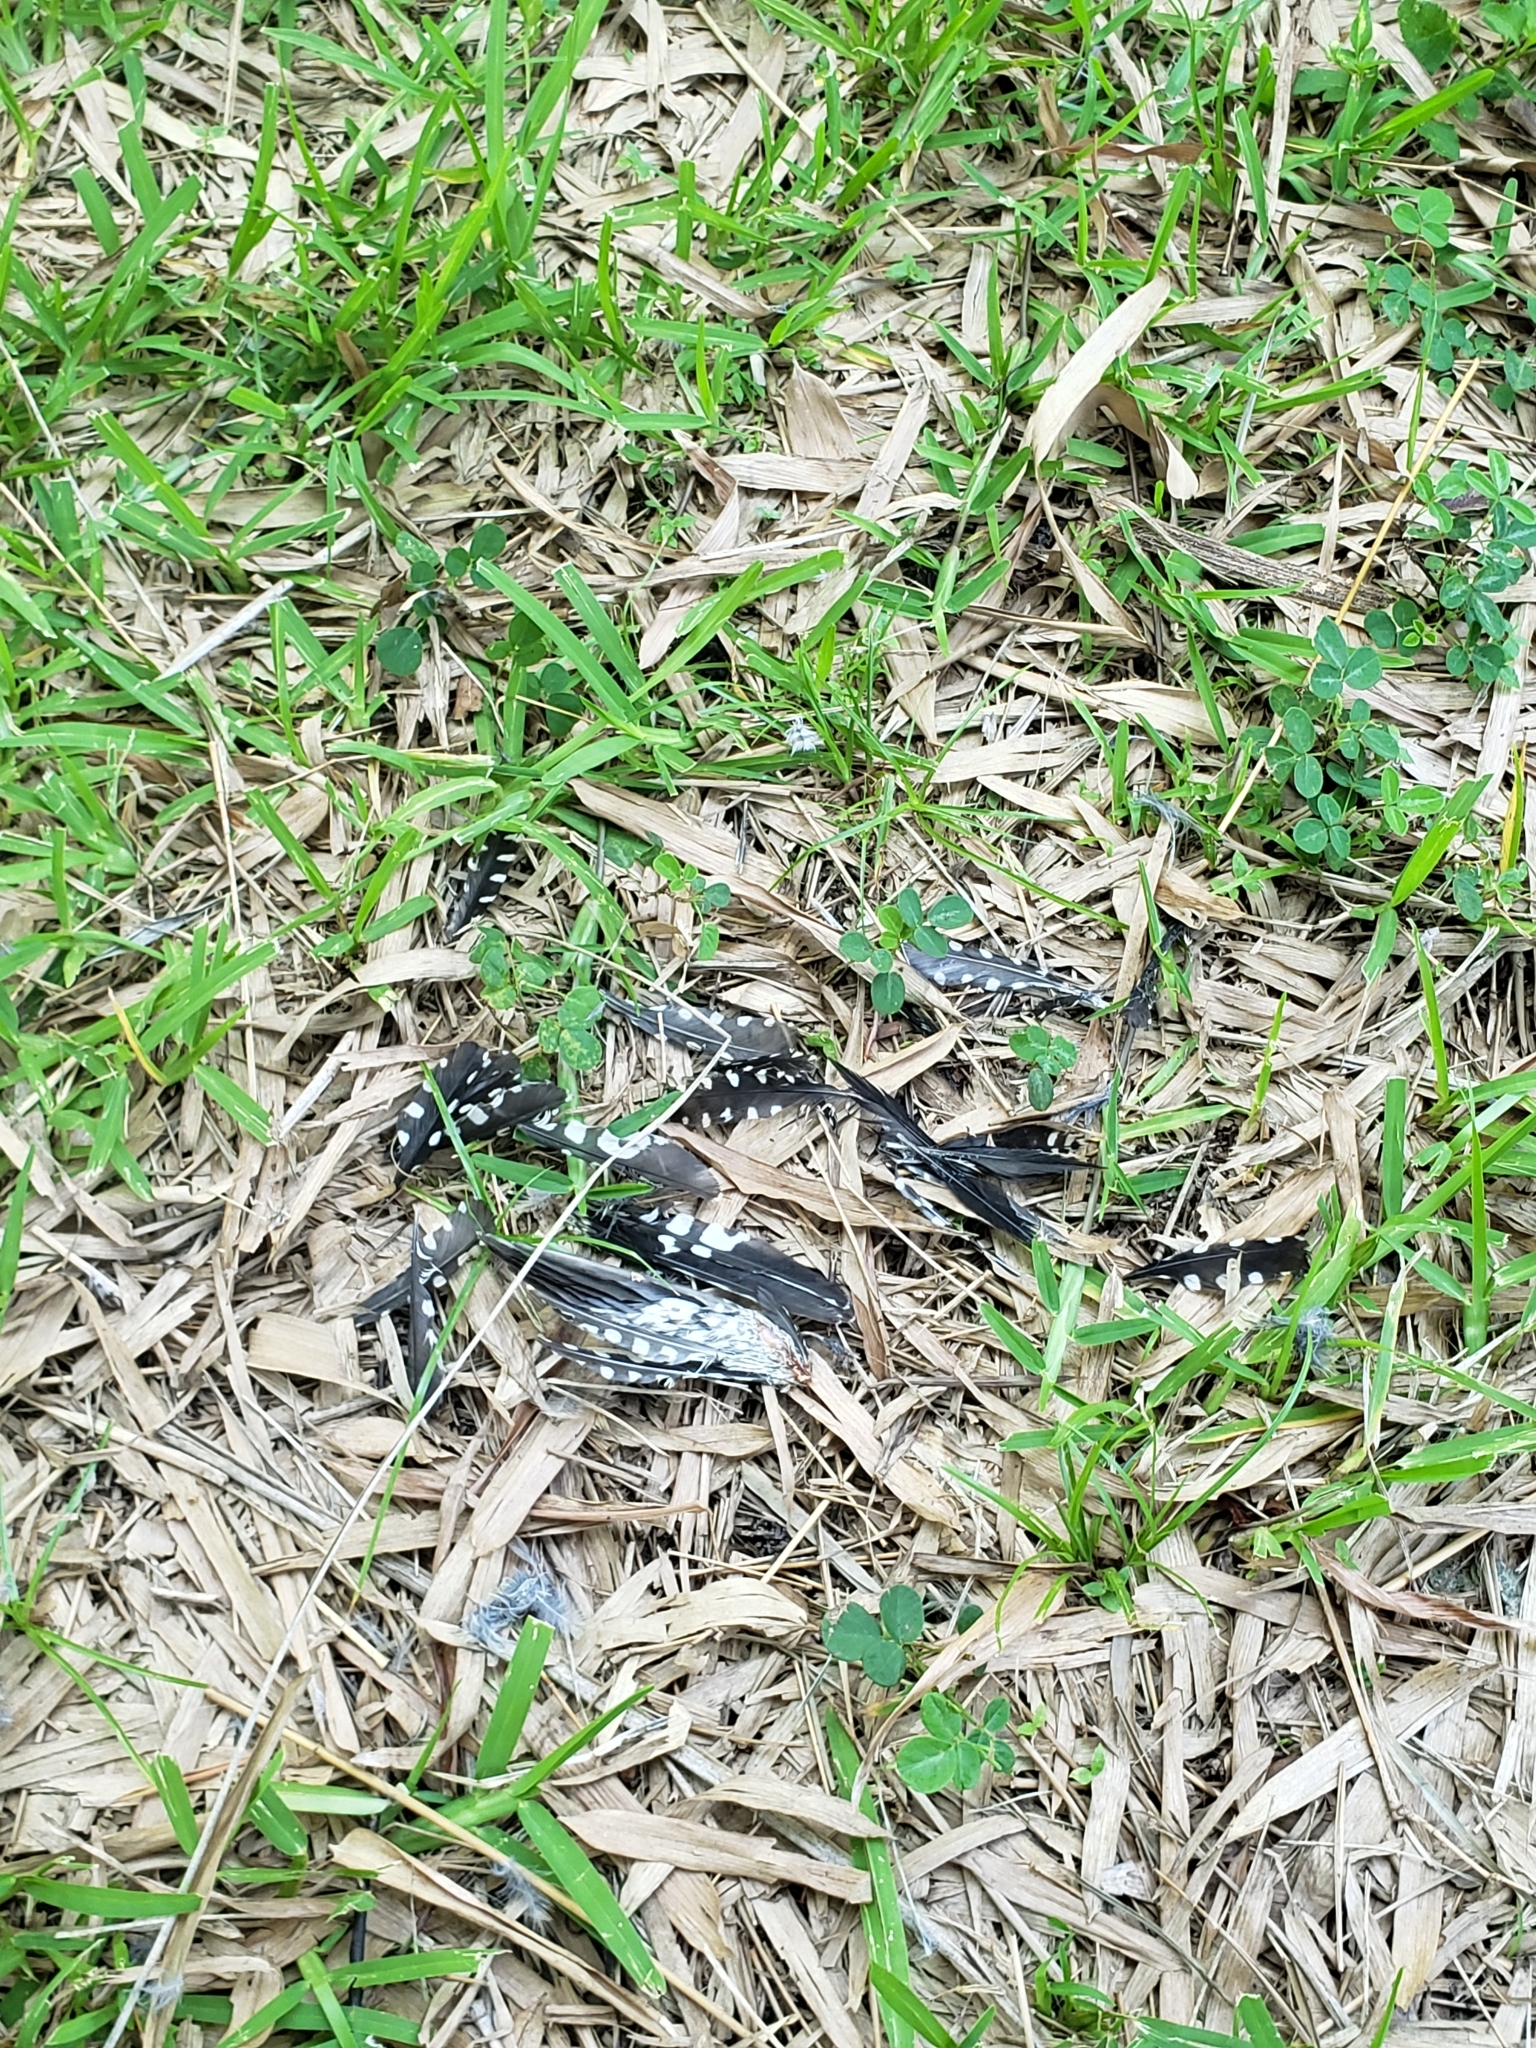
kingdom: Animalia
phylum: Chordata
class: Aves
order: Piciformes
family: Picidae
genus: Melanerpes
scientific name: Melanerpes carolinus
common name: Red-bellied woodpecker
